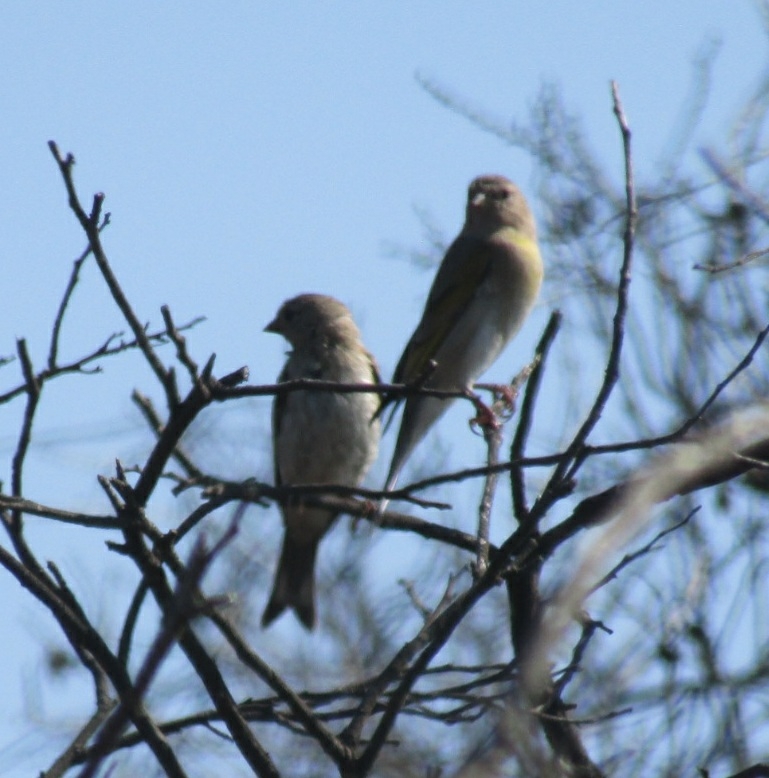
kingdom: Animalia
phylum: Chordata
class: Aves
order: Passeriformes
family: Fringillidae
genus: Spinus
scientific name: Spinus lawrencei
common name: Lawrence's goldfinch
